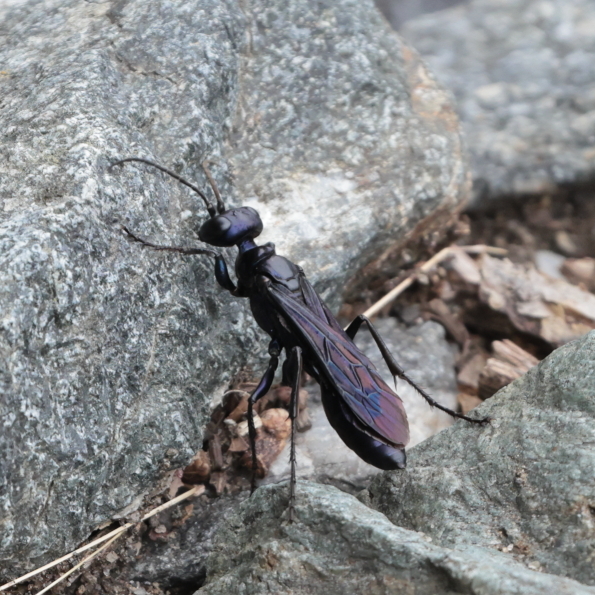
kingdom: Animalia
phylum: Arthropoda
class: Insecta
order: Hymenoptera
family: Sphecidae
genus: Chlorion
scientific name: Chlorion aerarium
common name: Steel-blue cricket hunter
